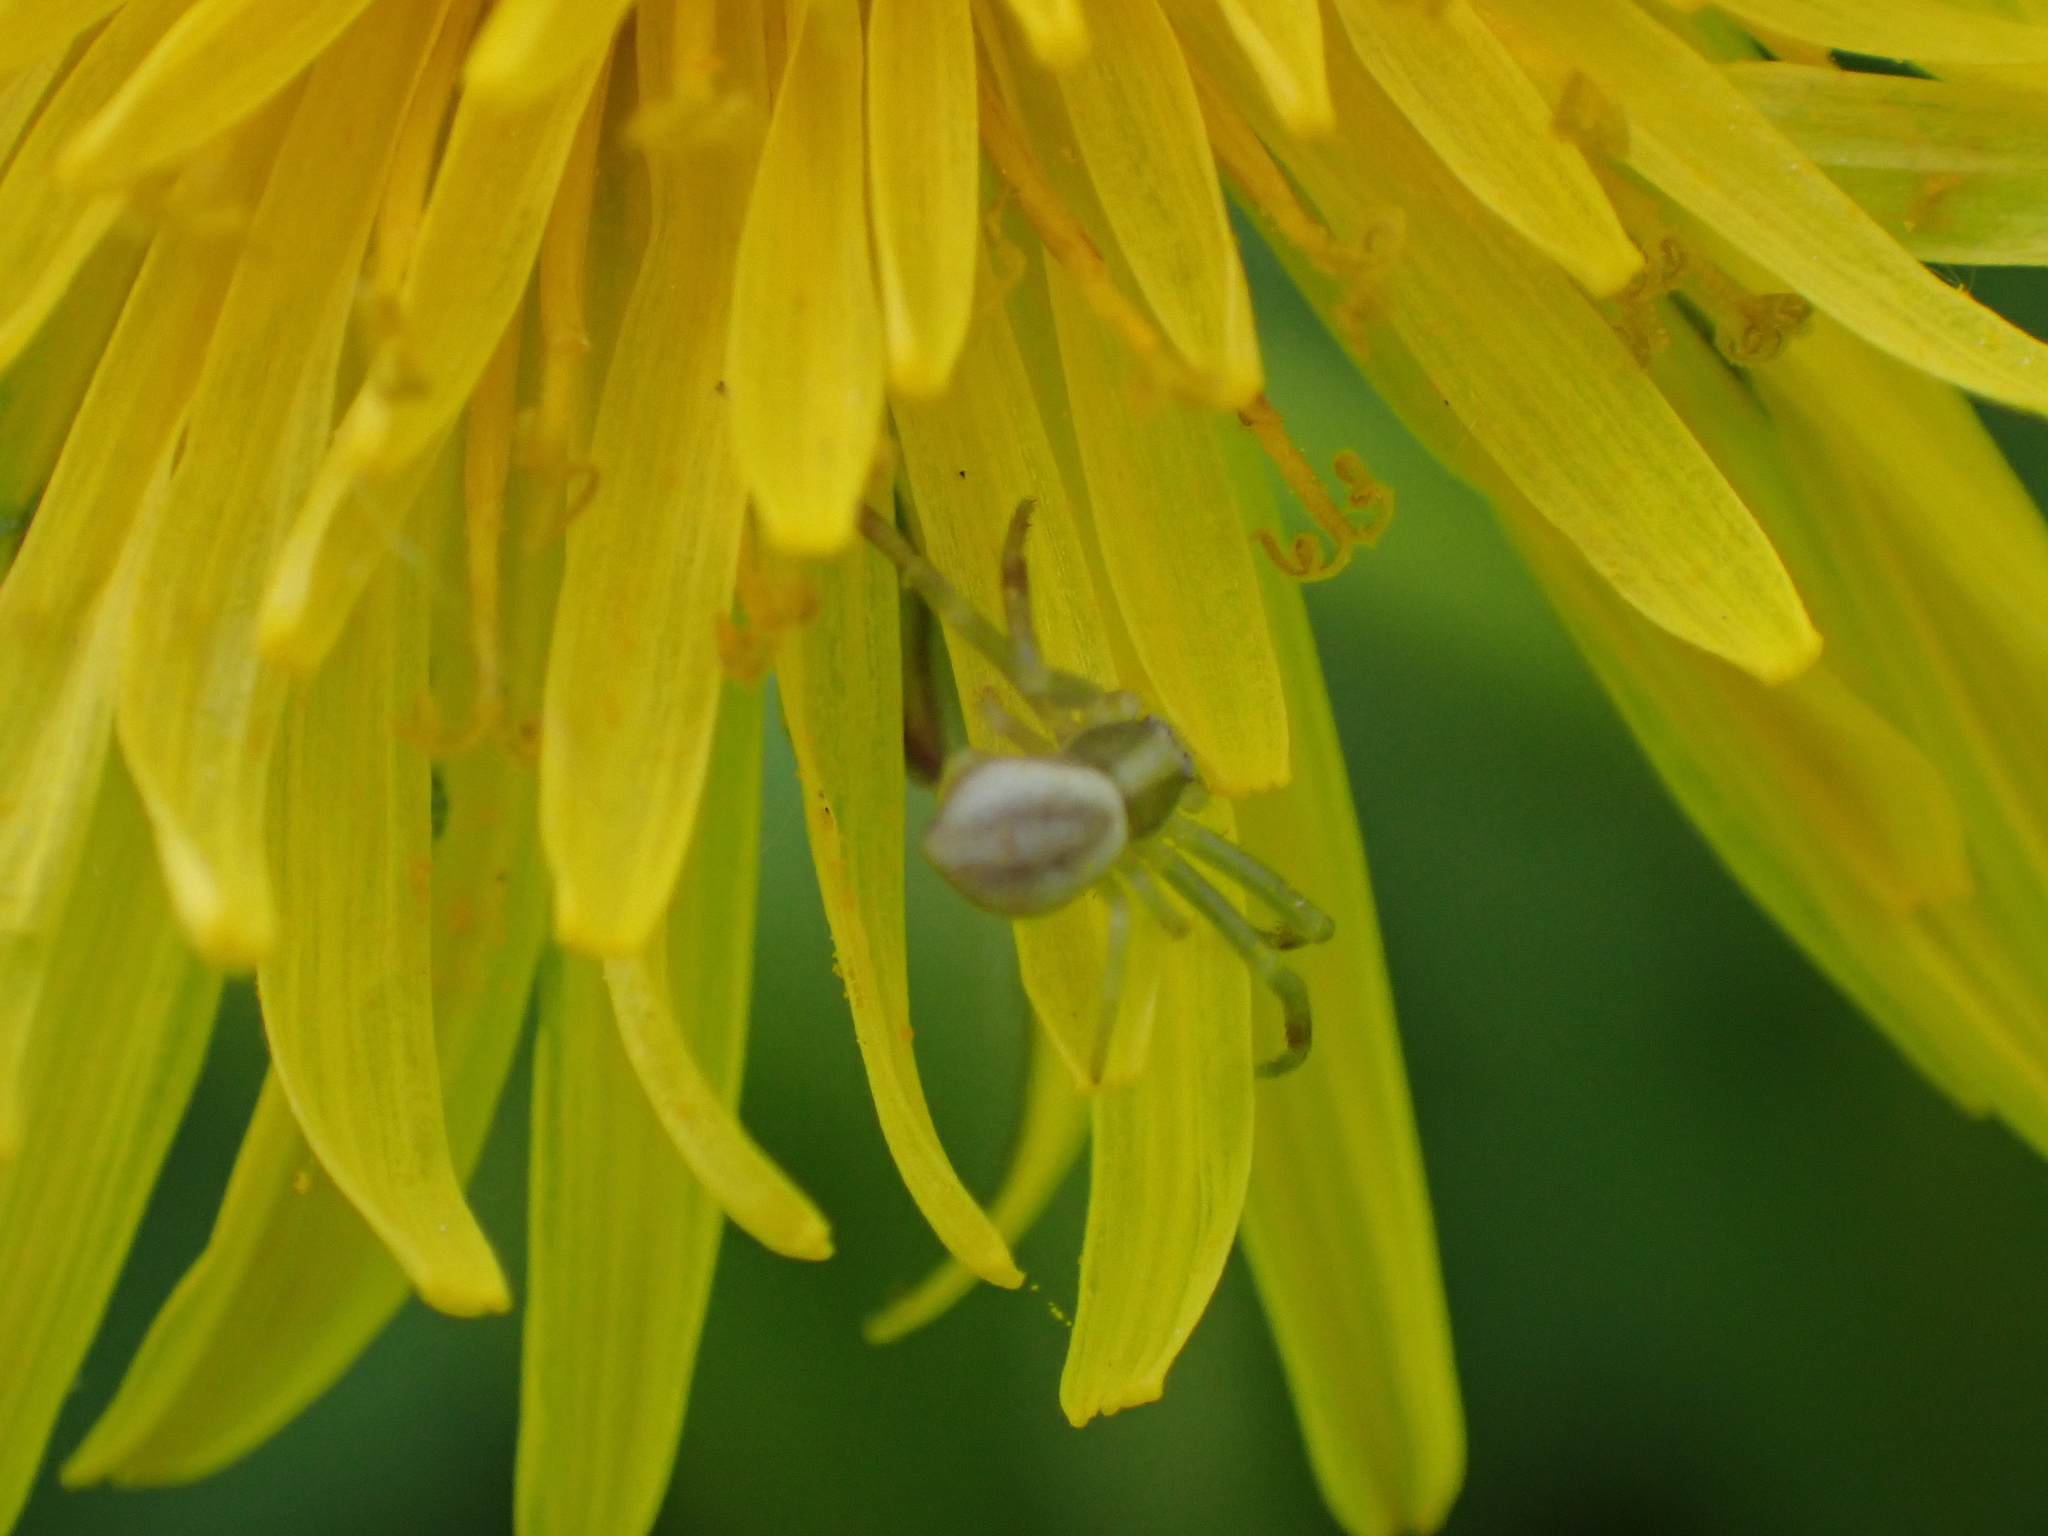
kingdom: Animalia
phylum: Arthropoda
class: Arachnida
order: Araneae
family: Thomisidae
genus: Misumena
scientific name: Misumena vatia
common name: Goldenrod crab spider
